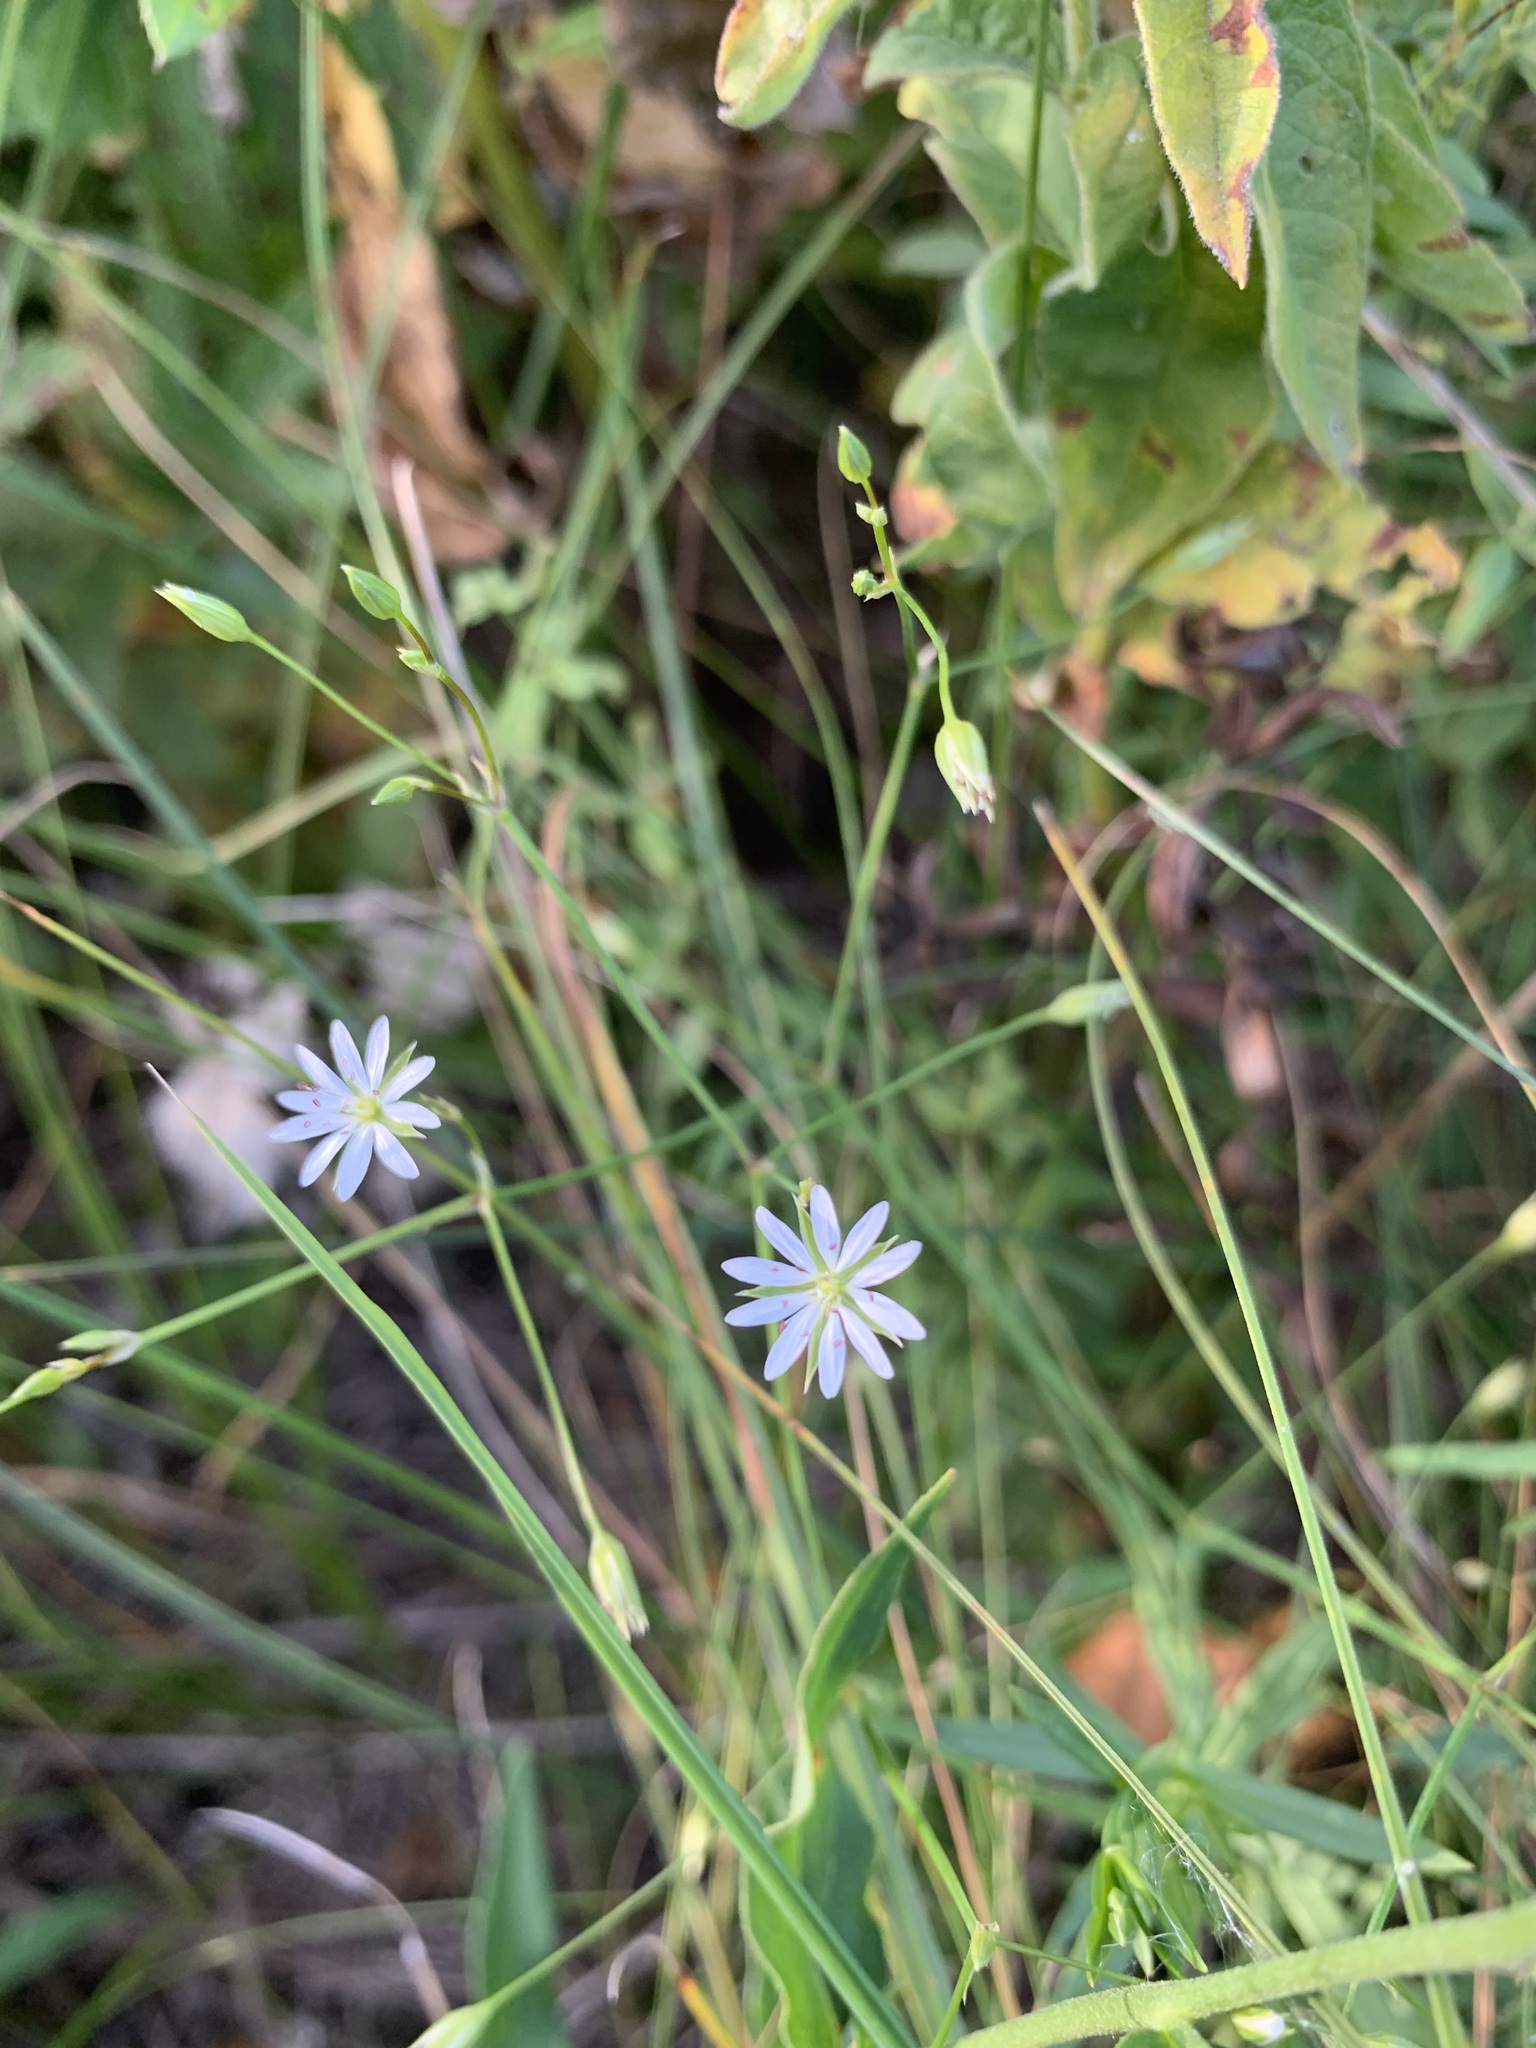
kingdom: Plantae
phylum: Tracheophyta
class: Magnoliopsida
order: Caryophyllales
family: Caryophyllaceae
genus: Stellaria
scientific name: Stellaria graminea
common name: Grass-like starwort
